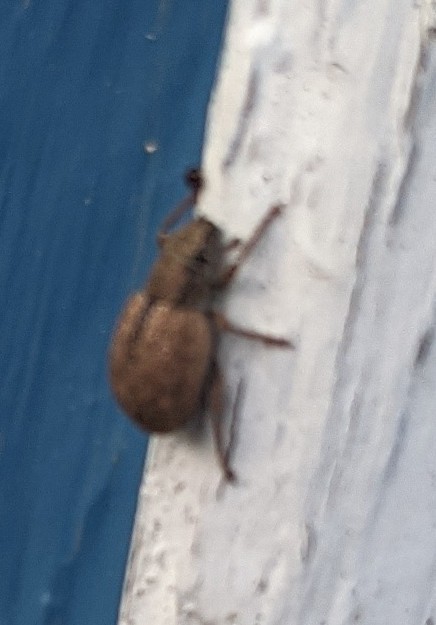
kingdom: Animalia
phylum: Arthropoda
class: Insecta
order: Coleoptera
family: Curculionidae
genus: Strophosoma
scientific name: Strophosoma melanogrammum
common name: Weevil
